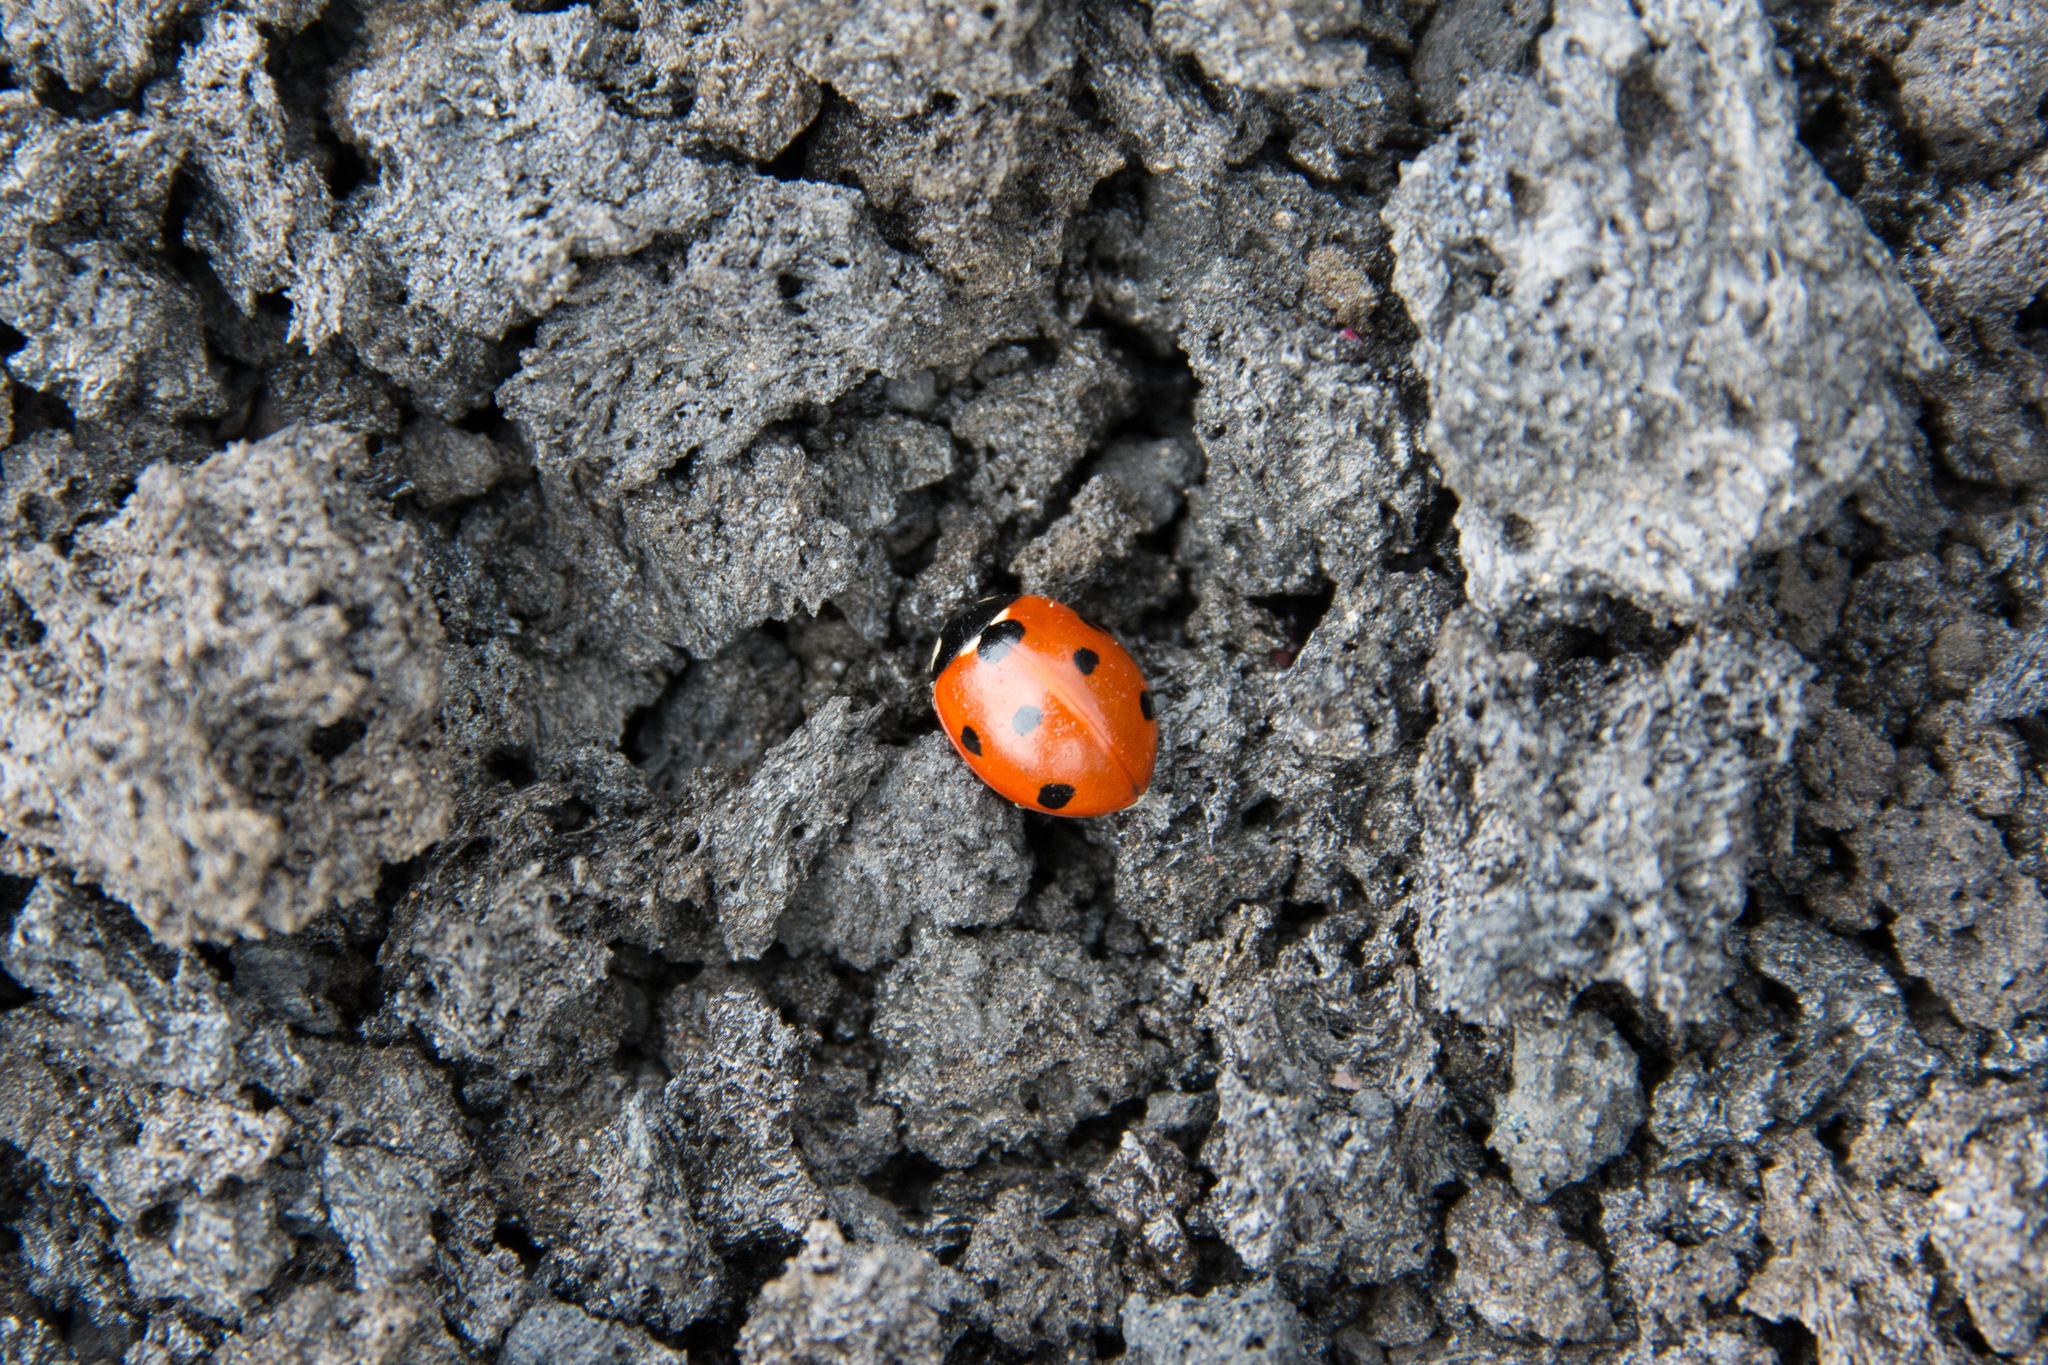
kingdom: Animalia
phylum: Arthropoda
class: Insecta
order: Coleoptera
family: Coccinellidae
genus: Coccinella
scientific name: Coccinella septempunctata
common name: Sevenspotted lady beetle
